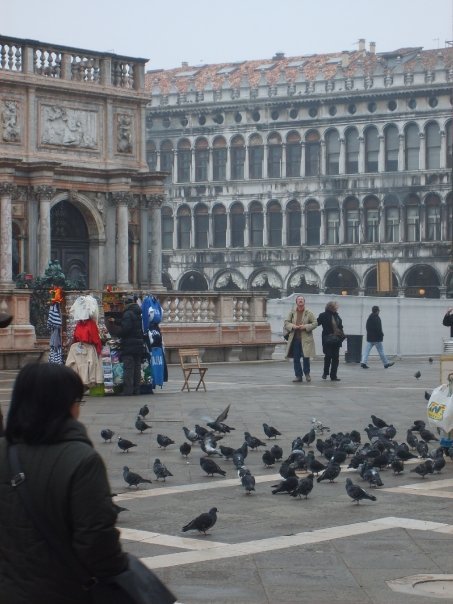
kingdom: Animalia
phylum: Chordata
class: Aves
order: Columbiformes
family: Columbidae
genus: Columba
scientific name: Columba livia
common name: Rock pigeon
